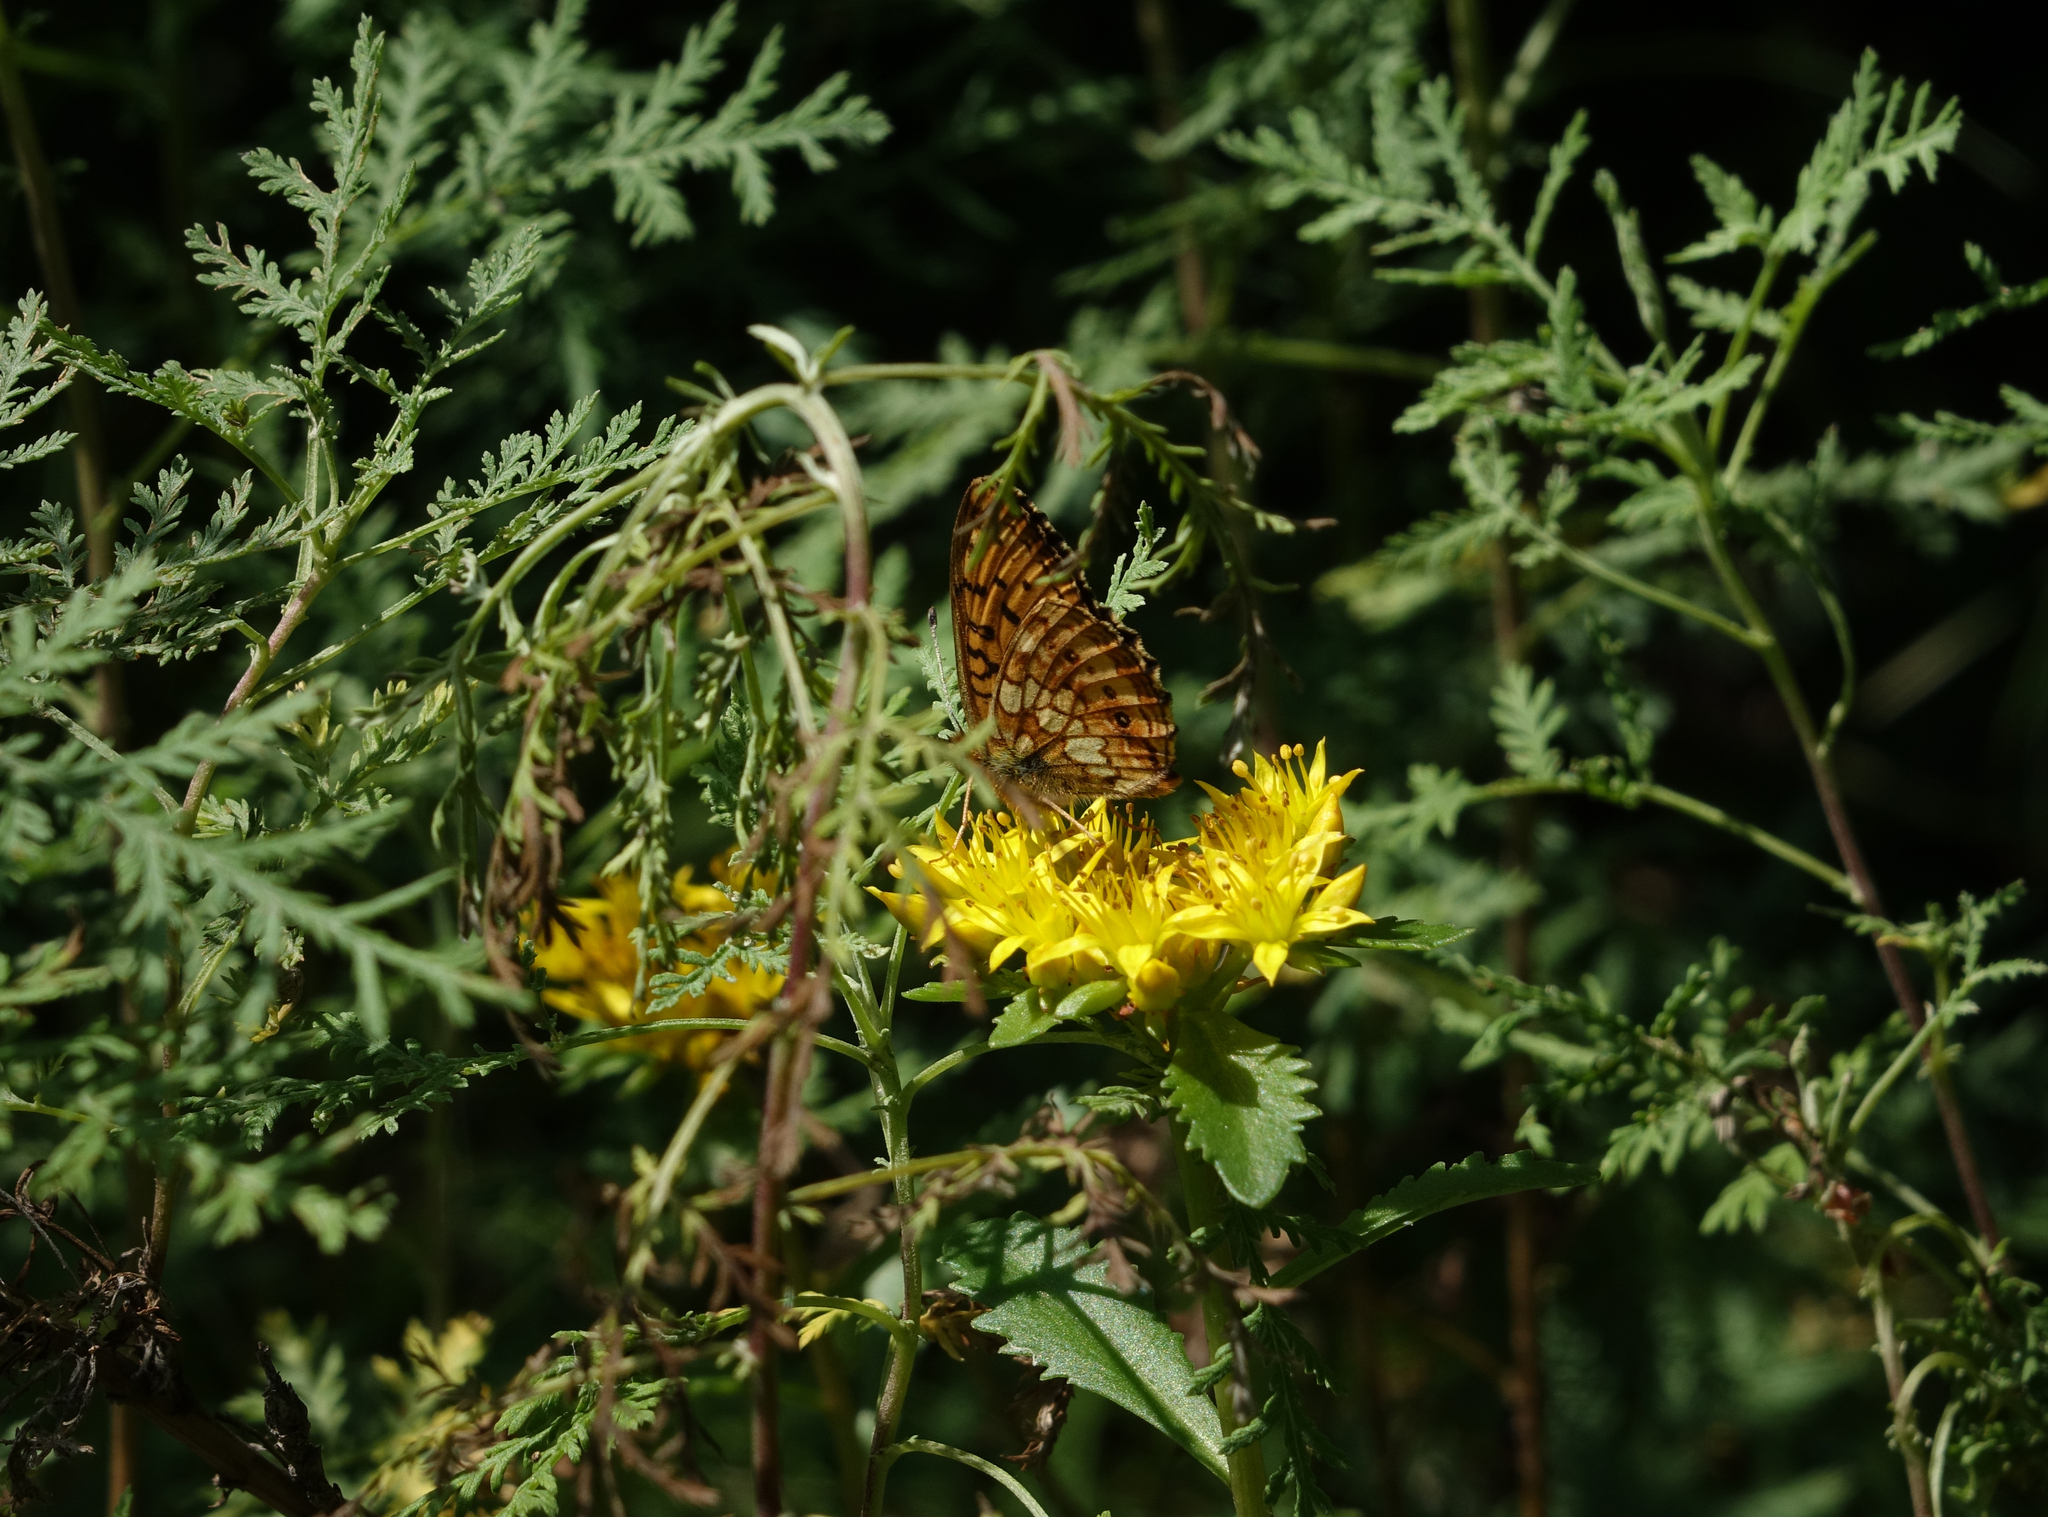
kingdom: Animalia
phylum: Arthropoda
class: Insecta
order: Lepidoptera
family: Nymphalidae
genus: Brenthis
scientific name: Brenthis ino
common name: Lesser marbled fritillary
